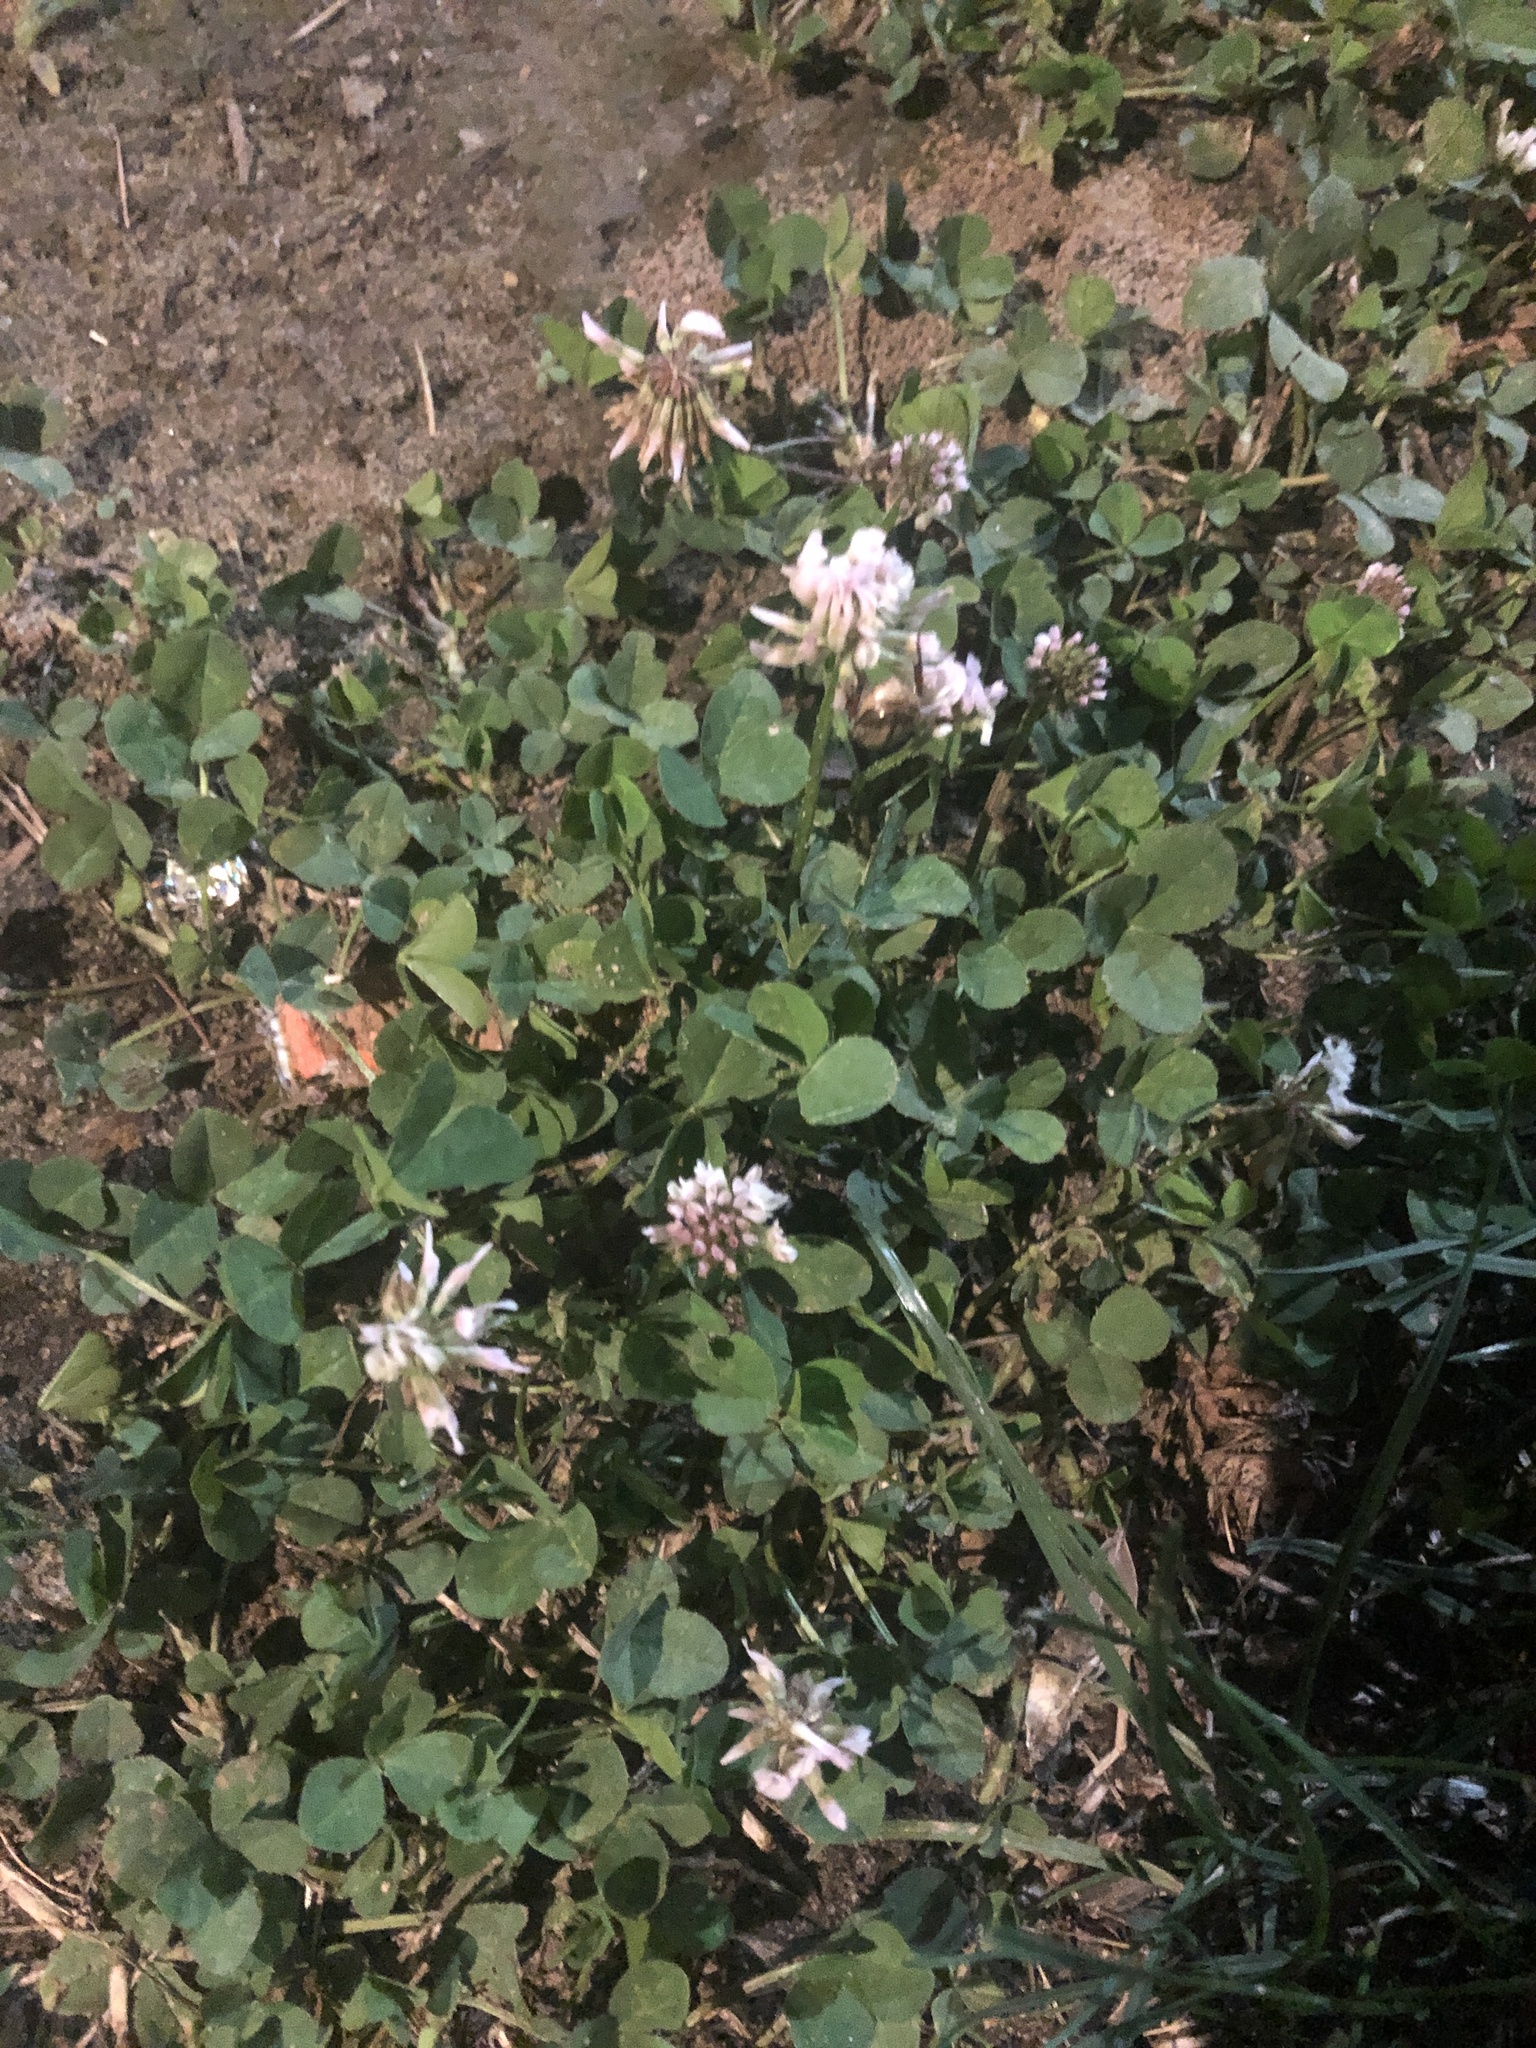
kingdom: Plantae
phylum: Tracheophyta
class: Magnoliopsida
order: Fabales
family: Fabaceae
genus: Trifolium
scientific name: Trifolium repens
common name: White clover
